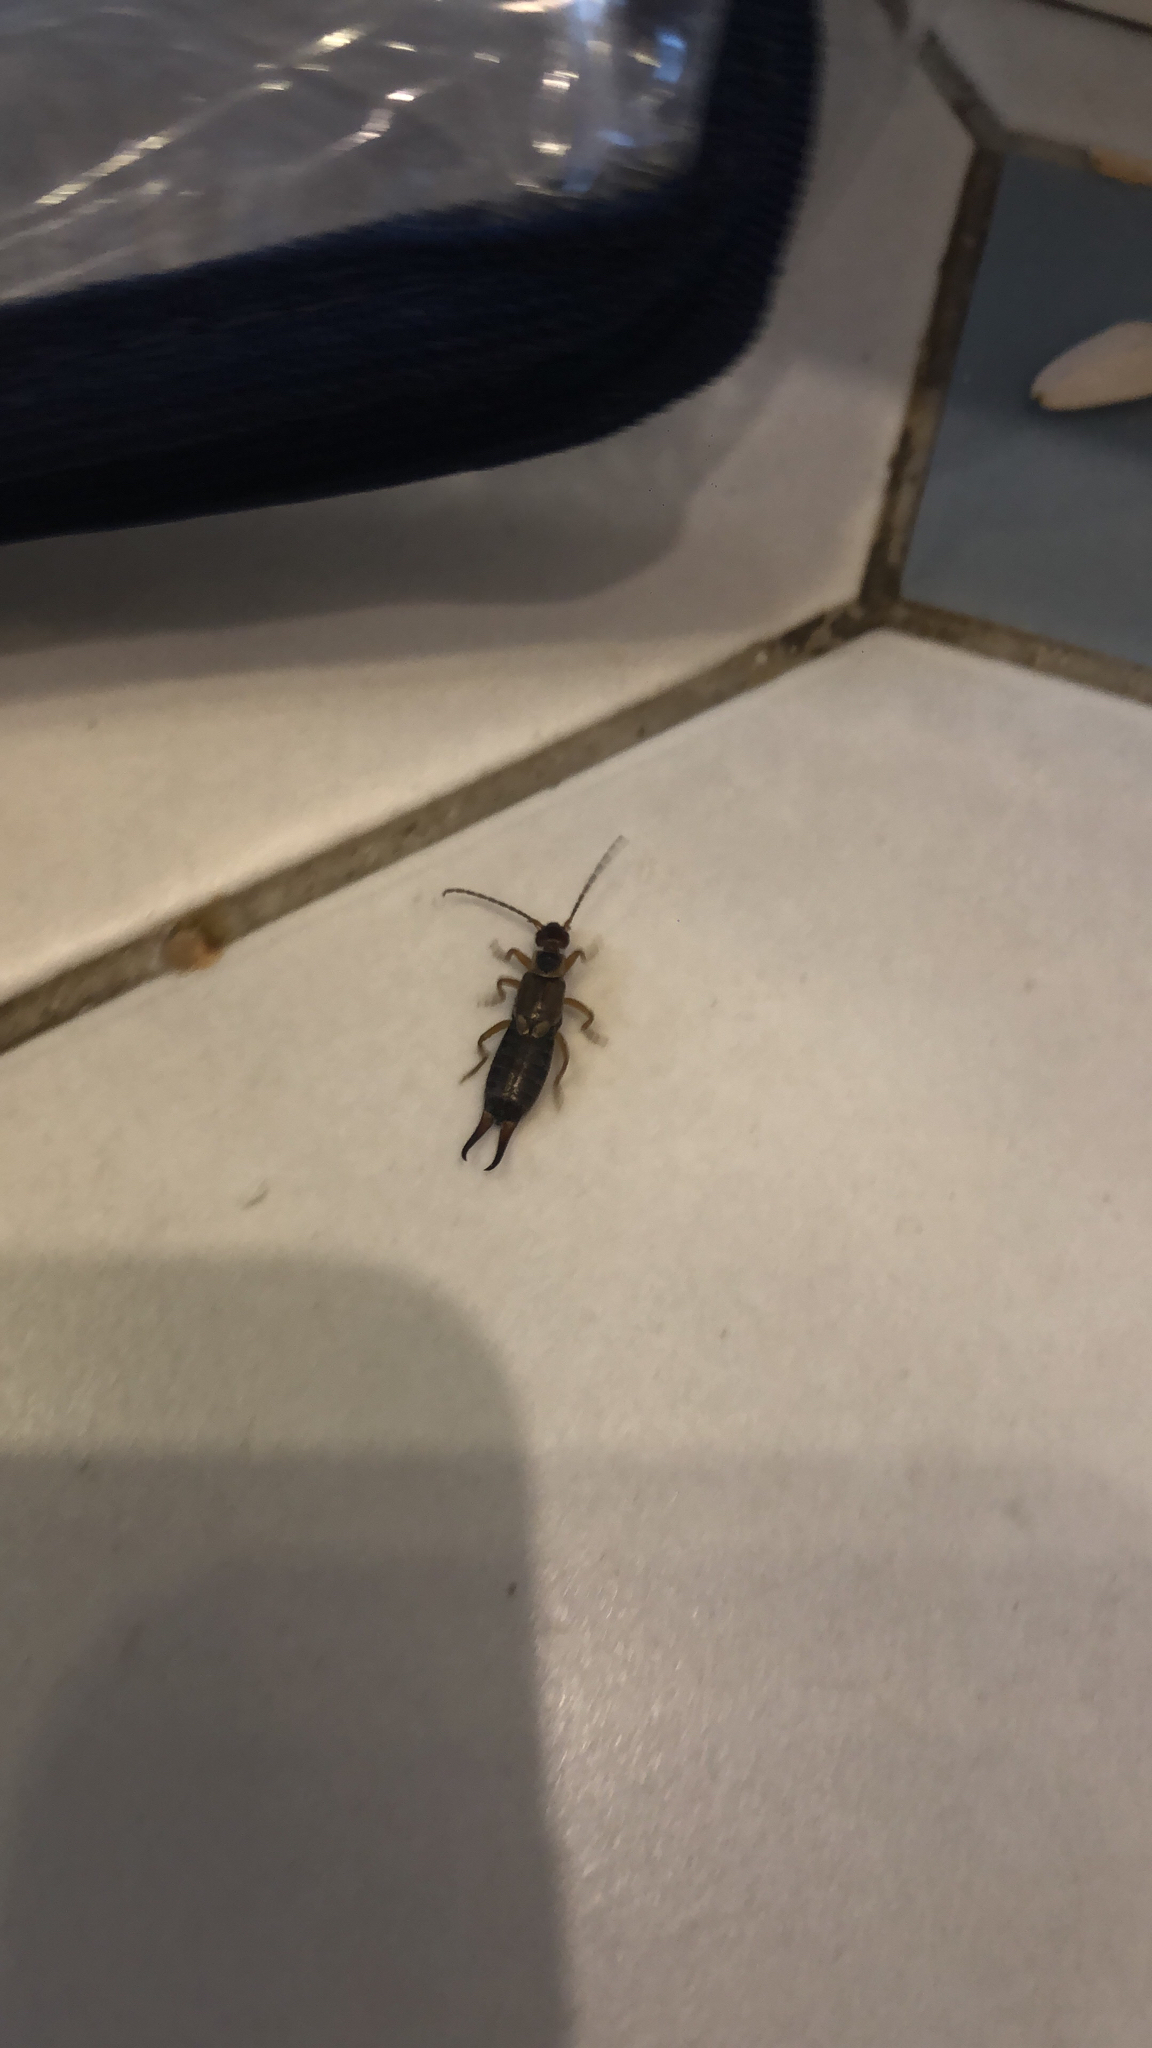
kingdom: Animalia
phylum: Arthropoda
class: Insecta
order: Dermaptera
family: Forficulidae
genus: Forficula
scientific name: Forficula
